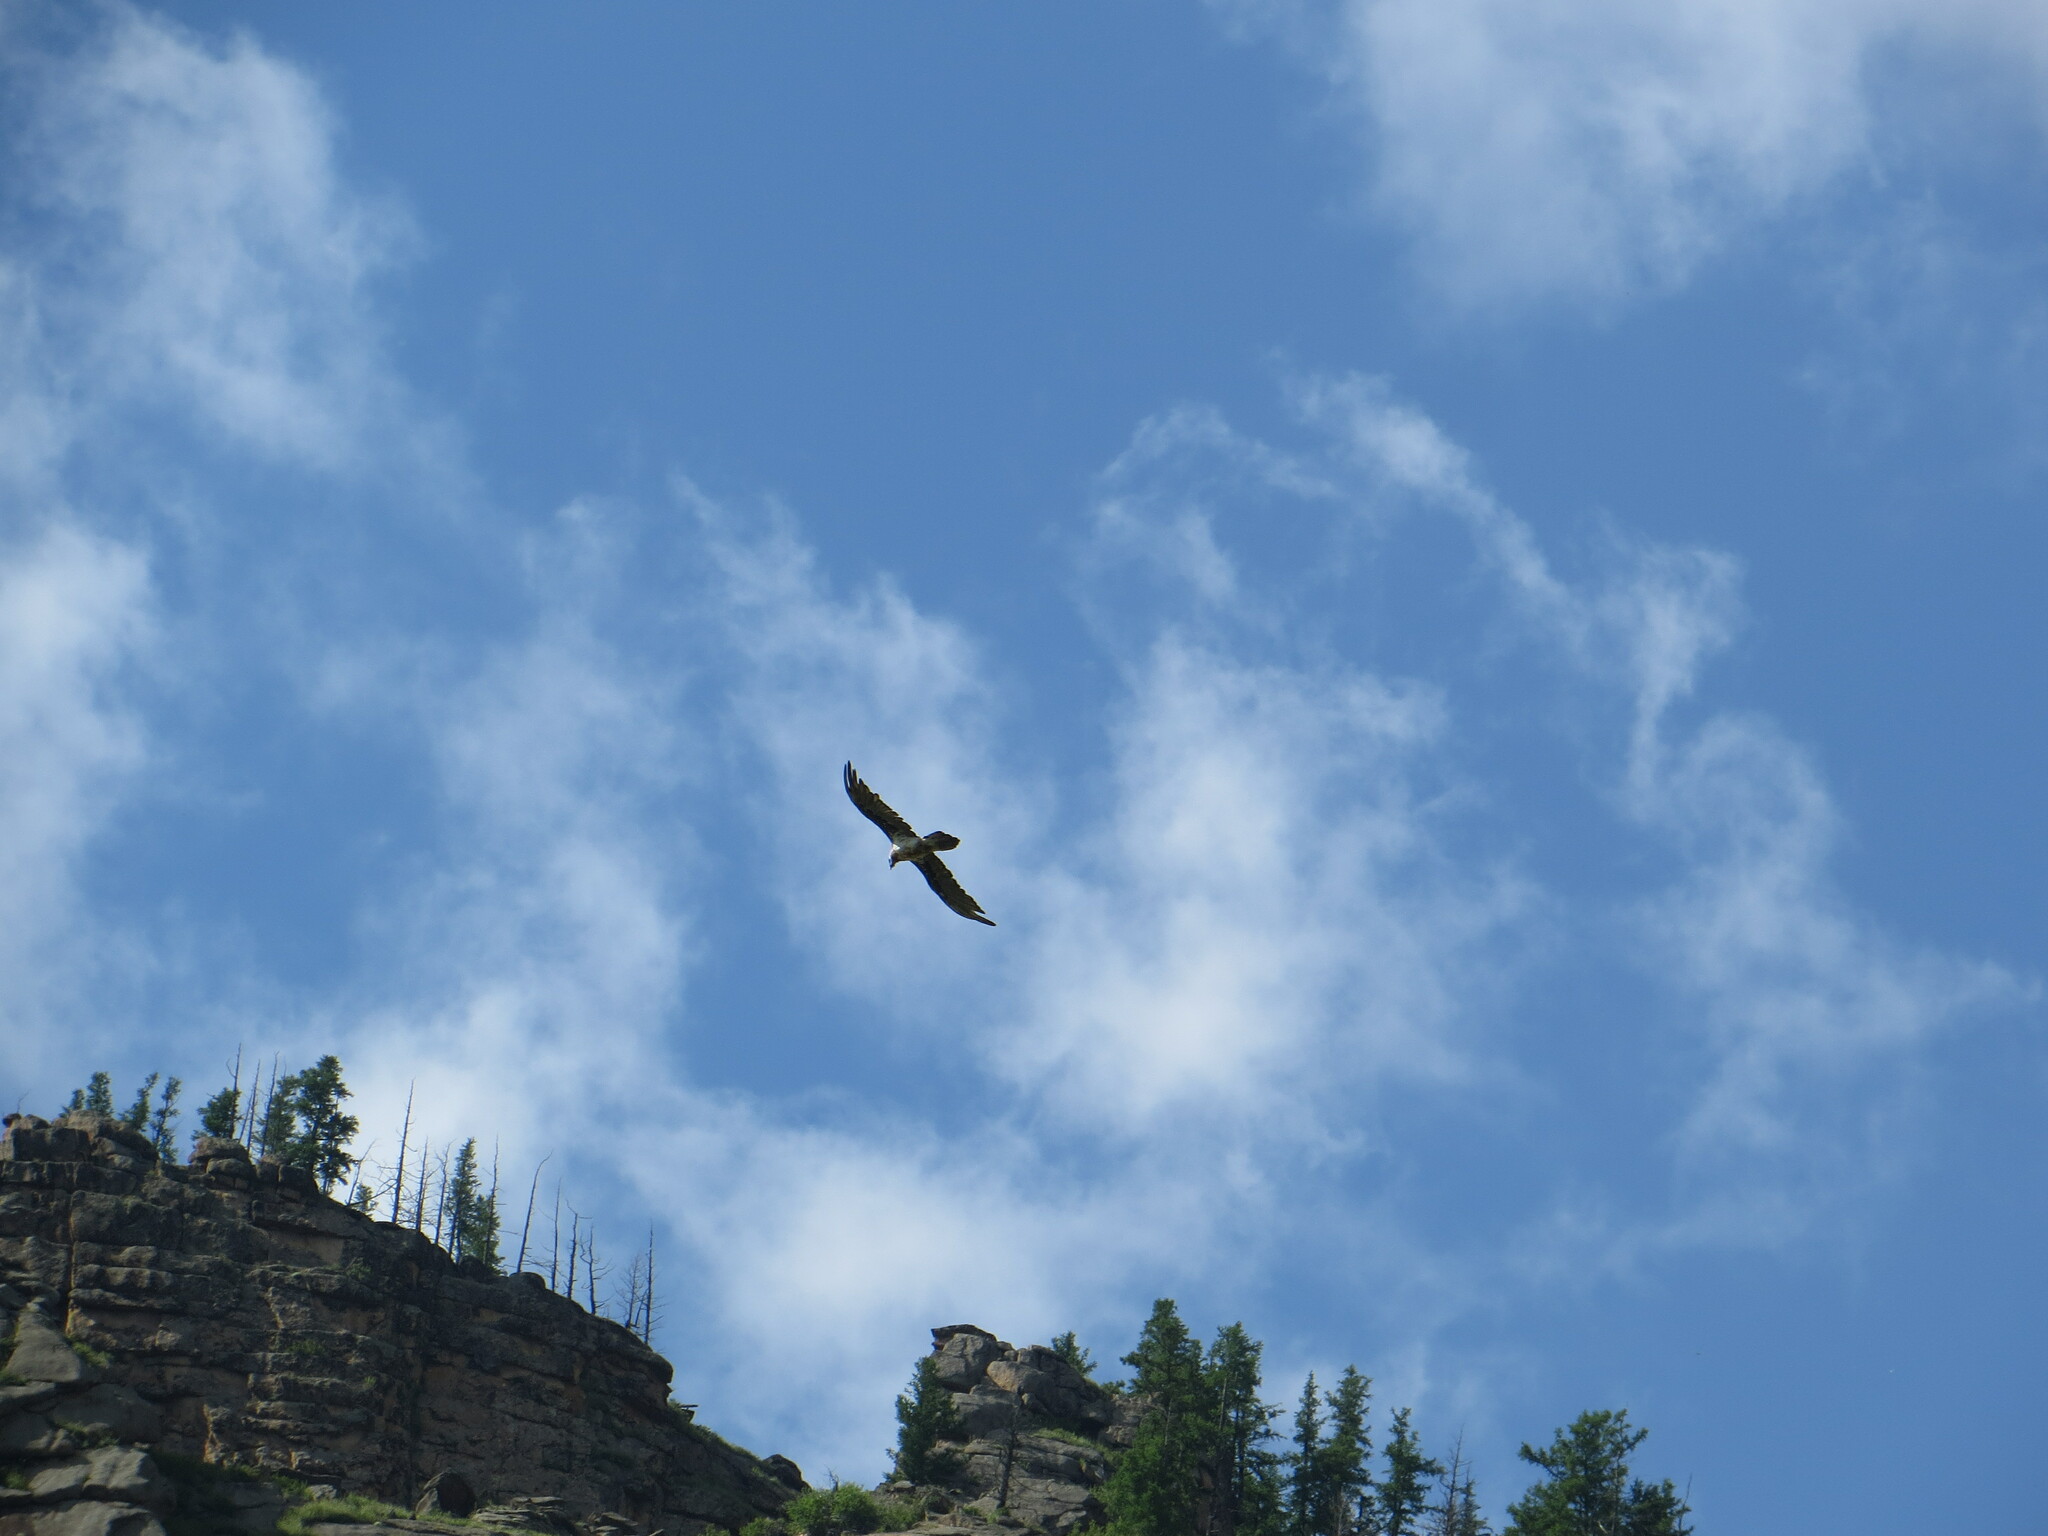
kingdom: Animalia
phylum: Chordata
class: Aves
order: Accipitriformes
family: Accipitridae
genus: Gypaetus
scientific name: Gypaetus barbatus
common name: Bearded vulture
